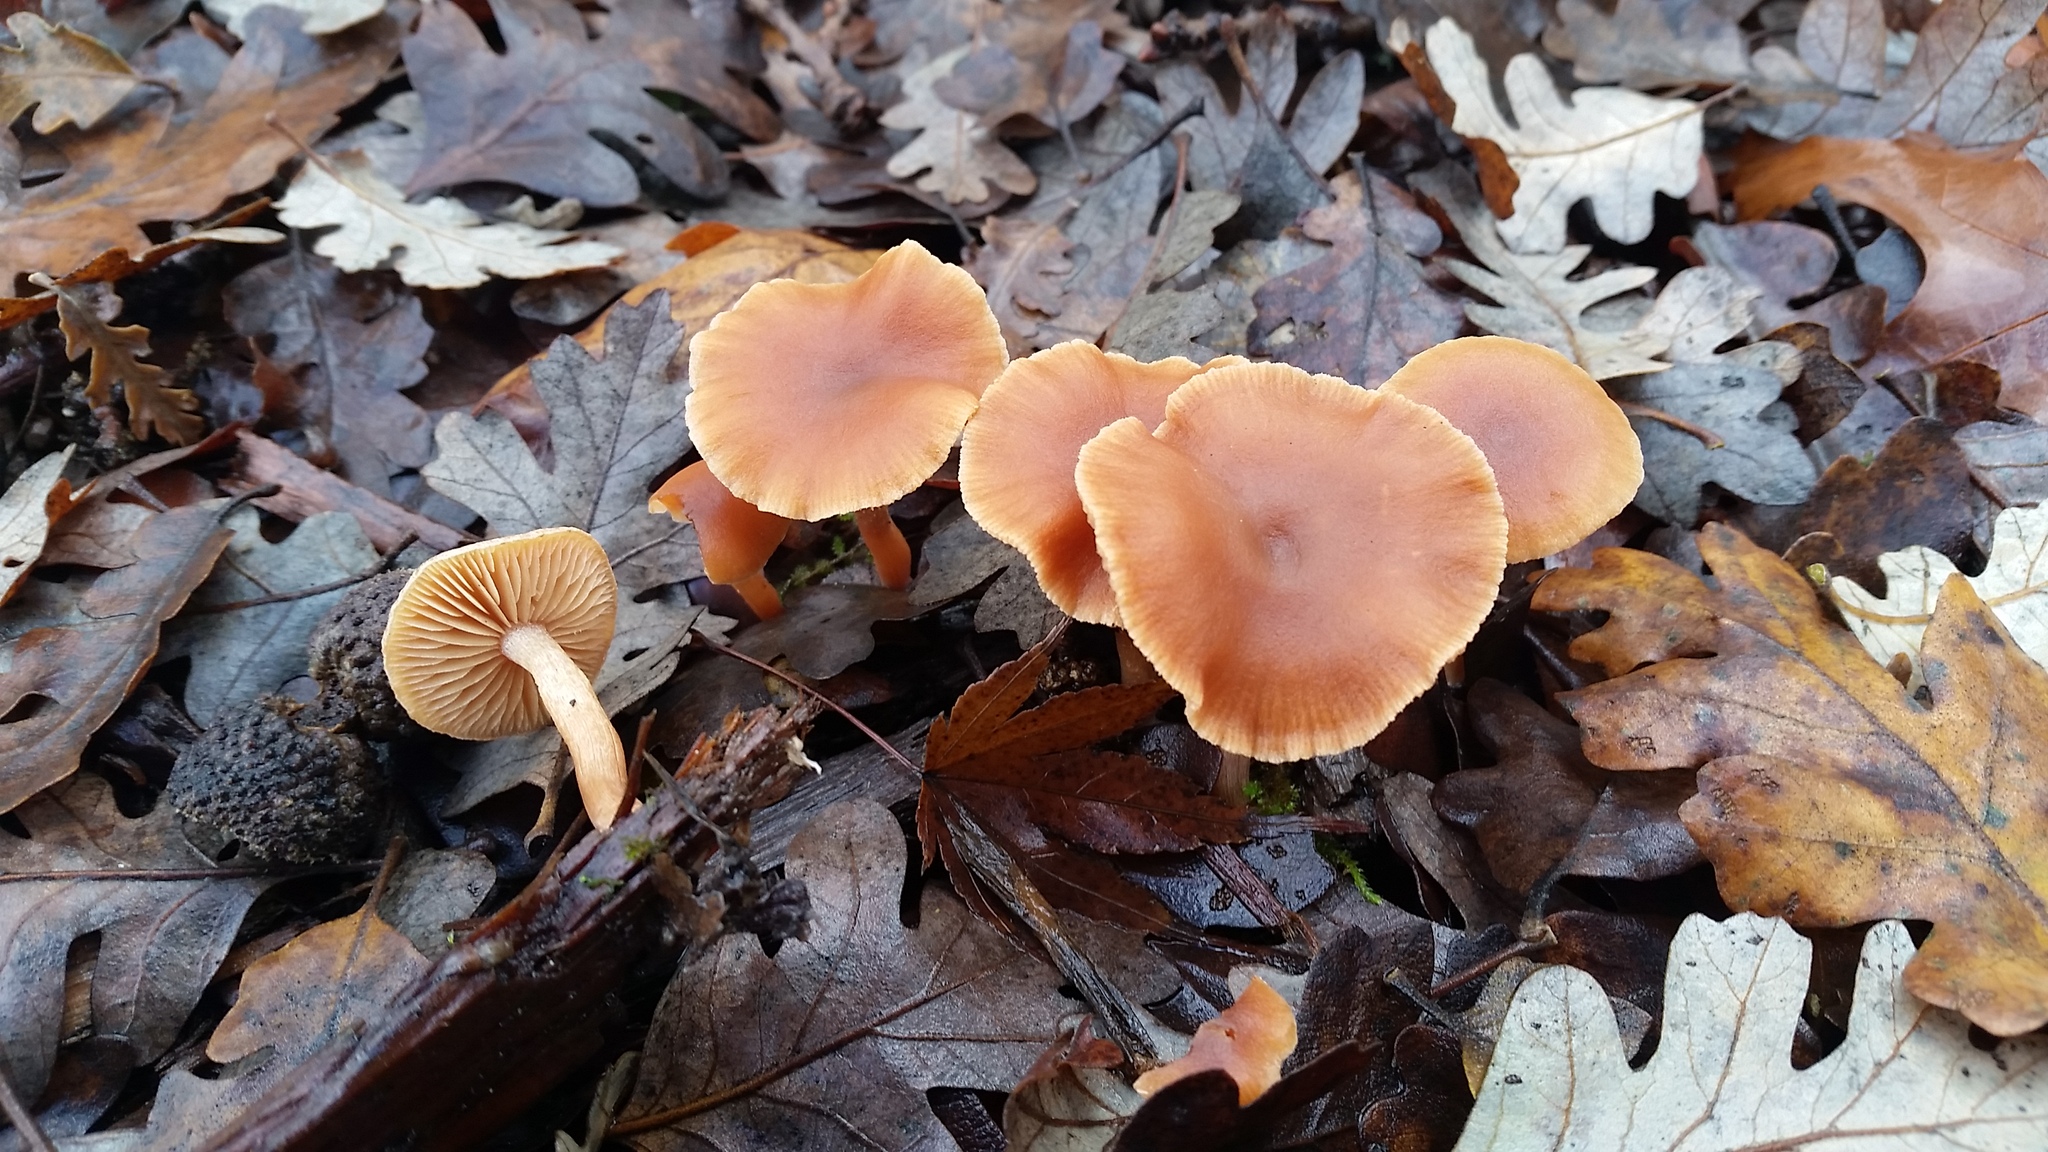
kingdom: Fungi
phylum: Basidiomycota
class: Agaricomycetes
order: Agaricales
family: Tubariaceae
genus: Tubaria
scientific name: Tubaria furfuracea
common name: Scurfy twiglet
